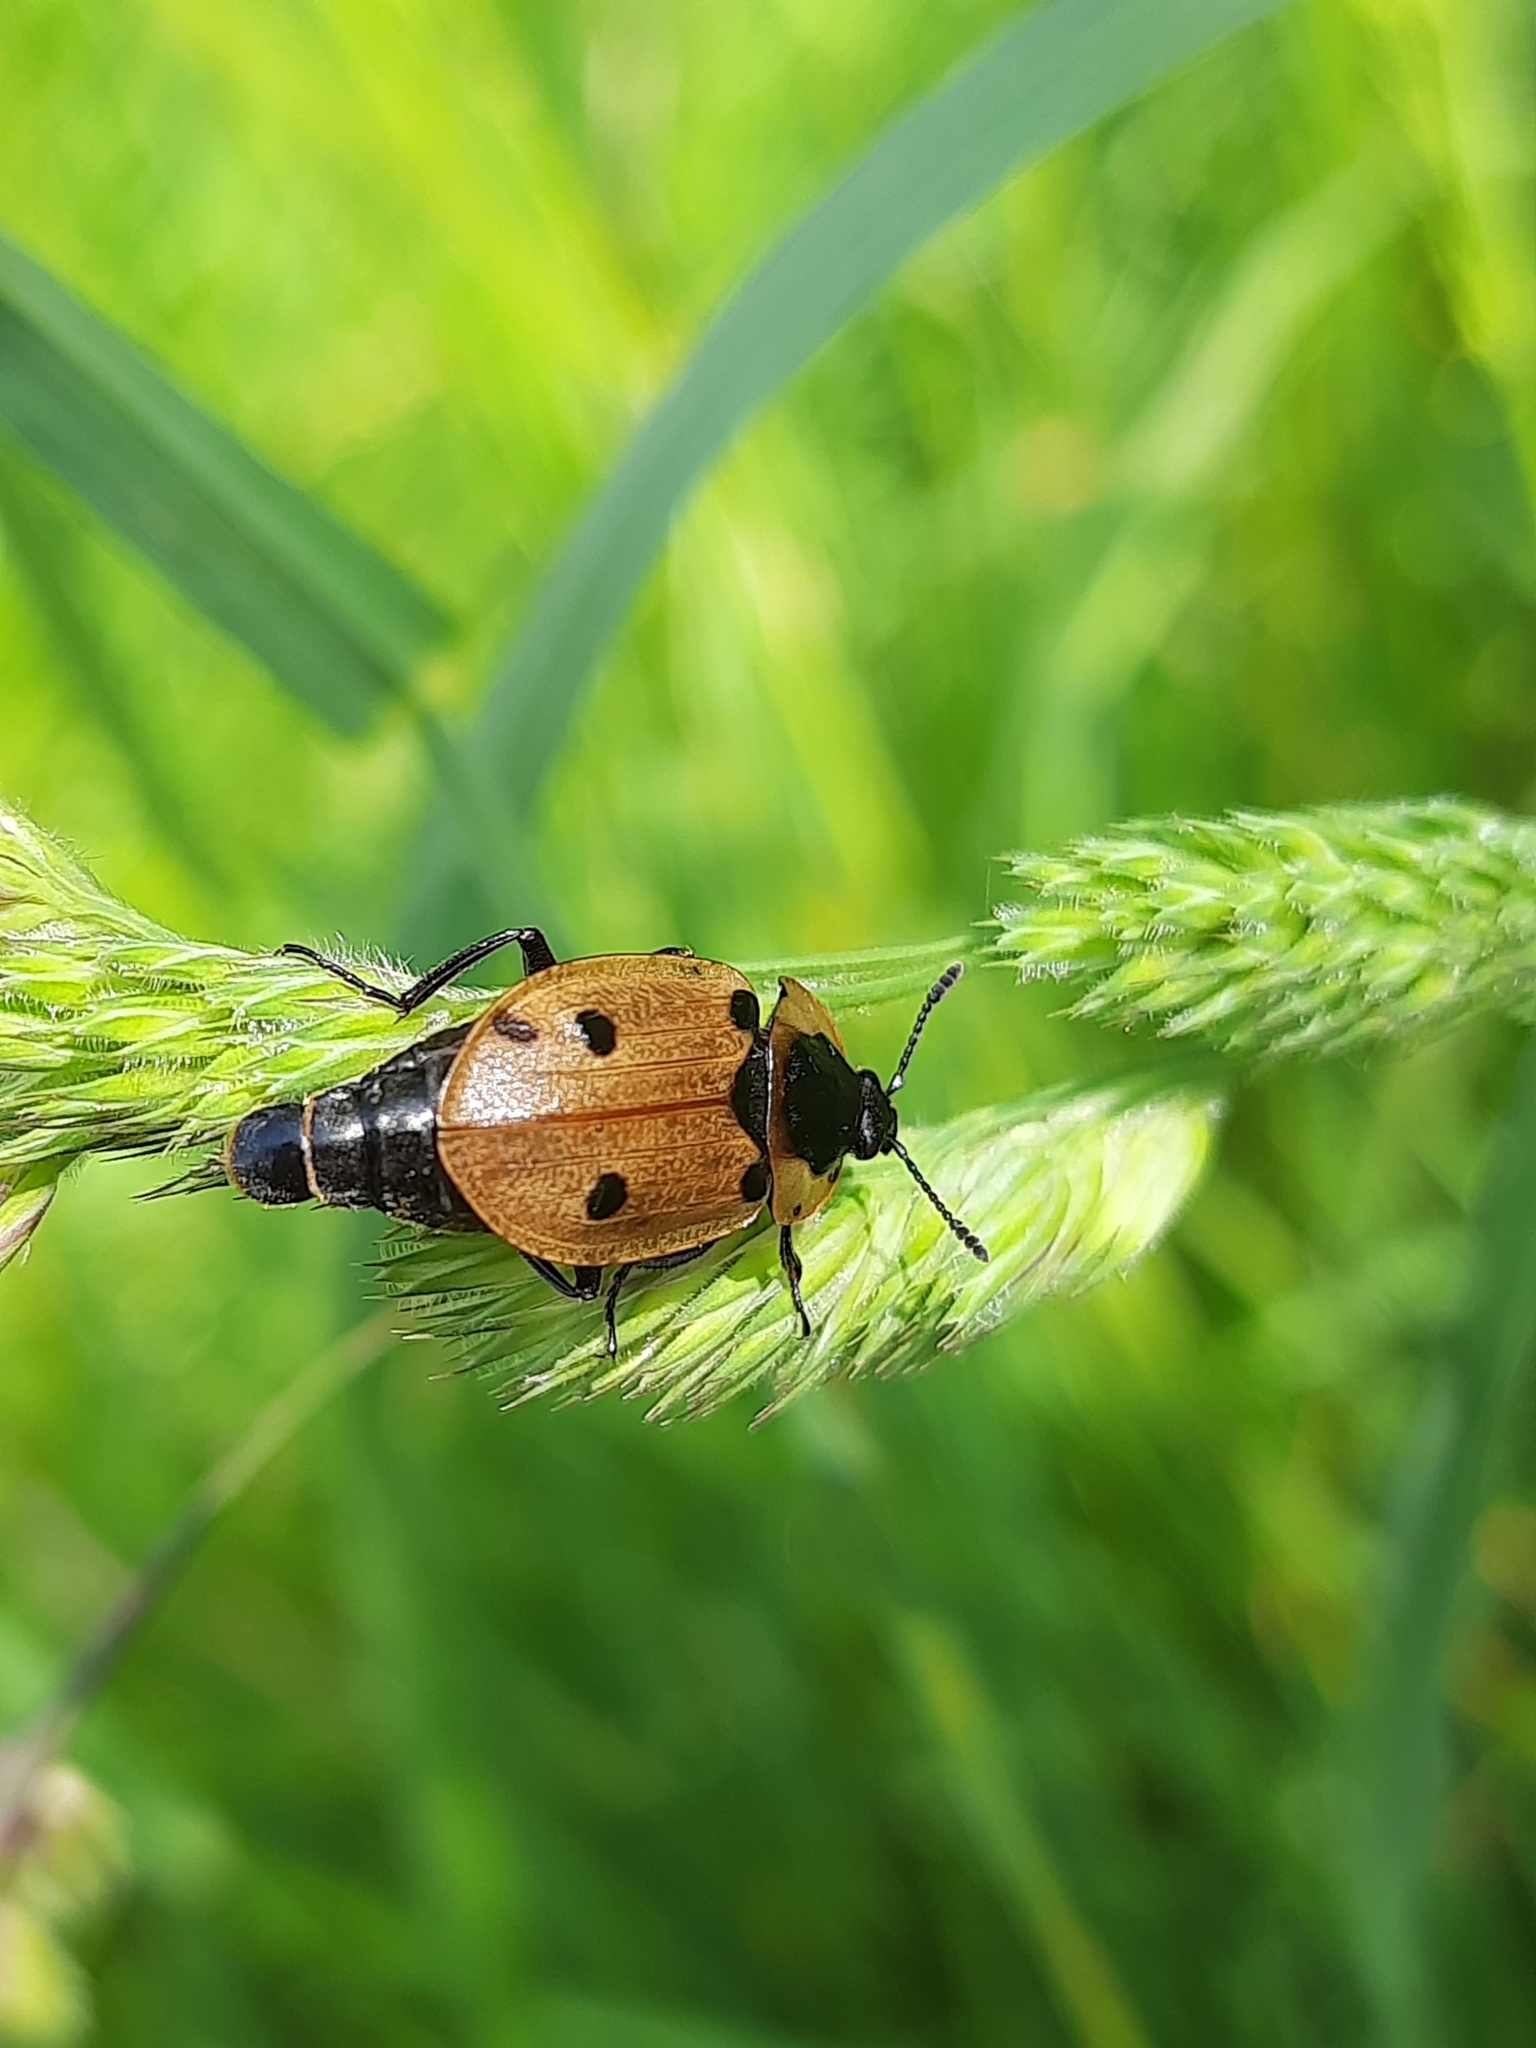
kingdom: Animalia
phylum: Arthropoda
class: Insecta
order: Coleoptera
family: Staphylinidae
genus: Dendroxena
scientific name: Dendroxena quadrimaculata
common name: Carrion beetle
